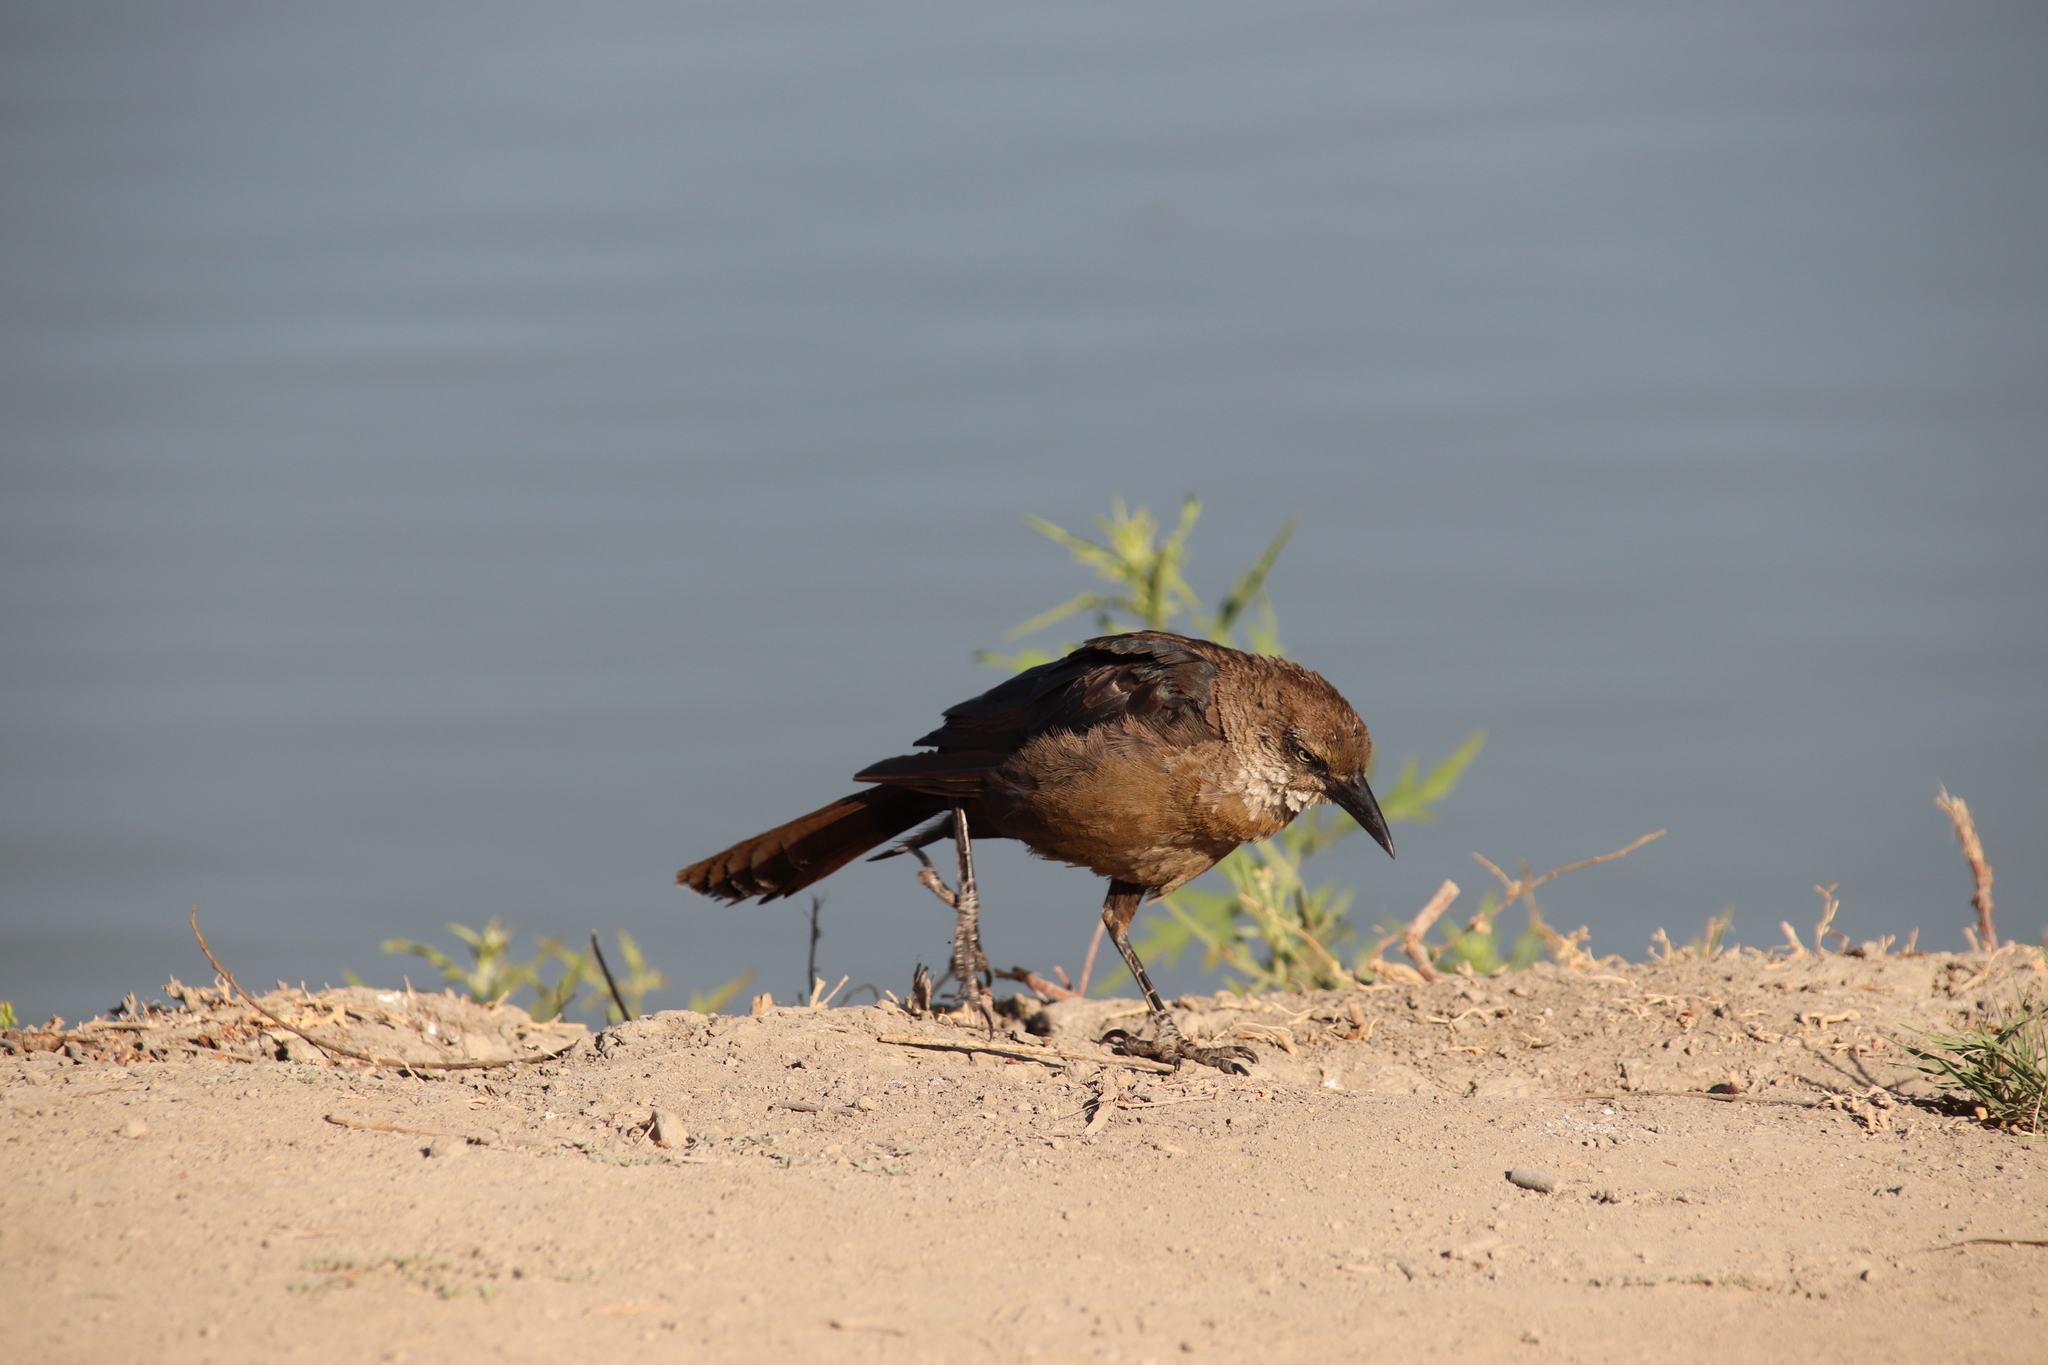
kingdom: Animalia
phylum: Chordata
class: Aves
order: Passeriformes
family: Icteridae
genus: Quiscalus
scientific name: Quiscalus mexicanus
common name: Great-tailed grackle
